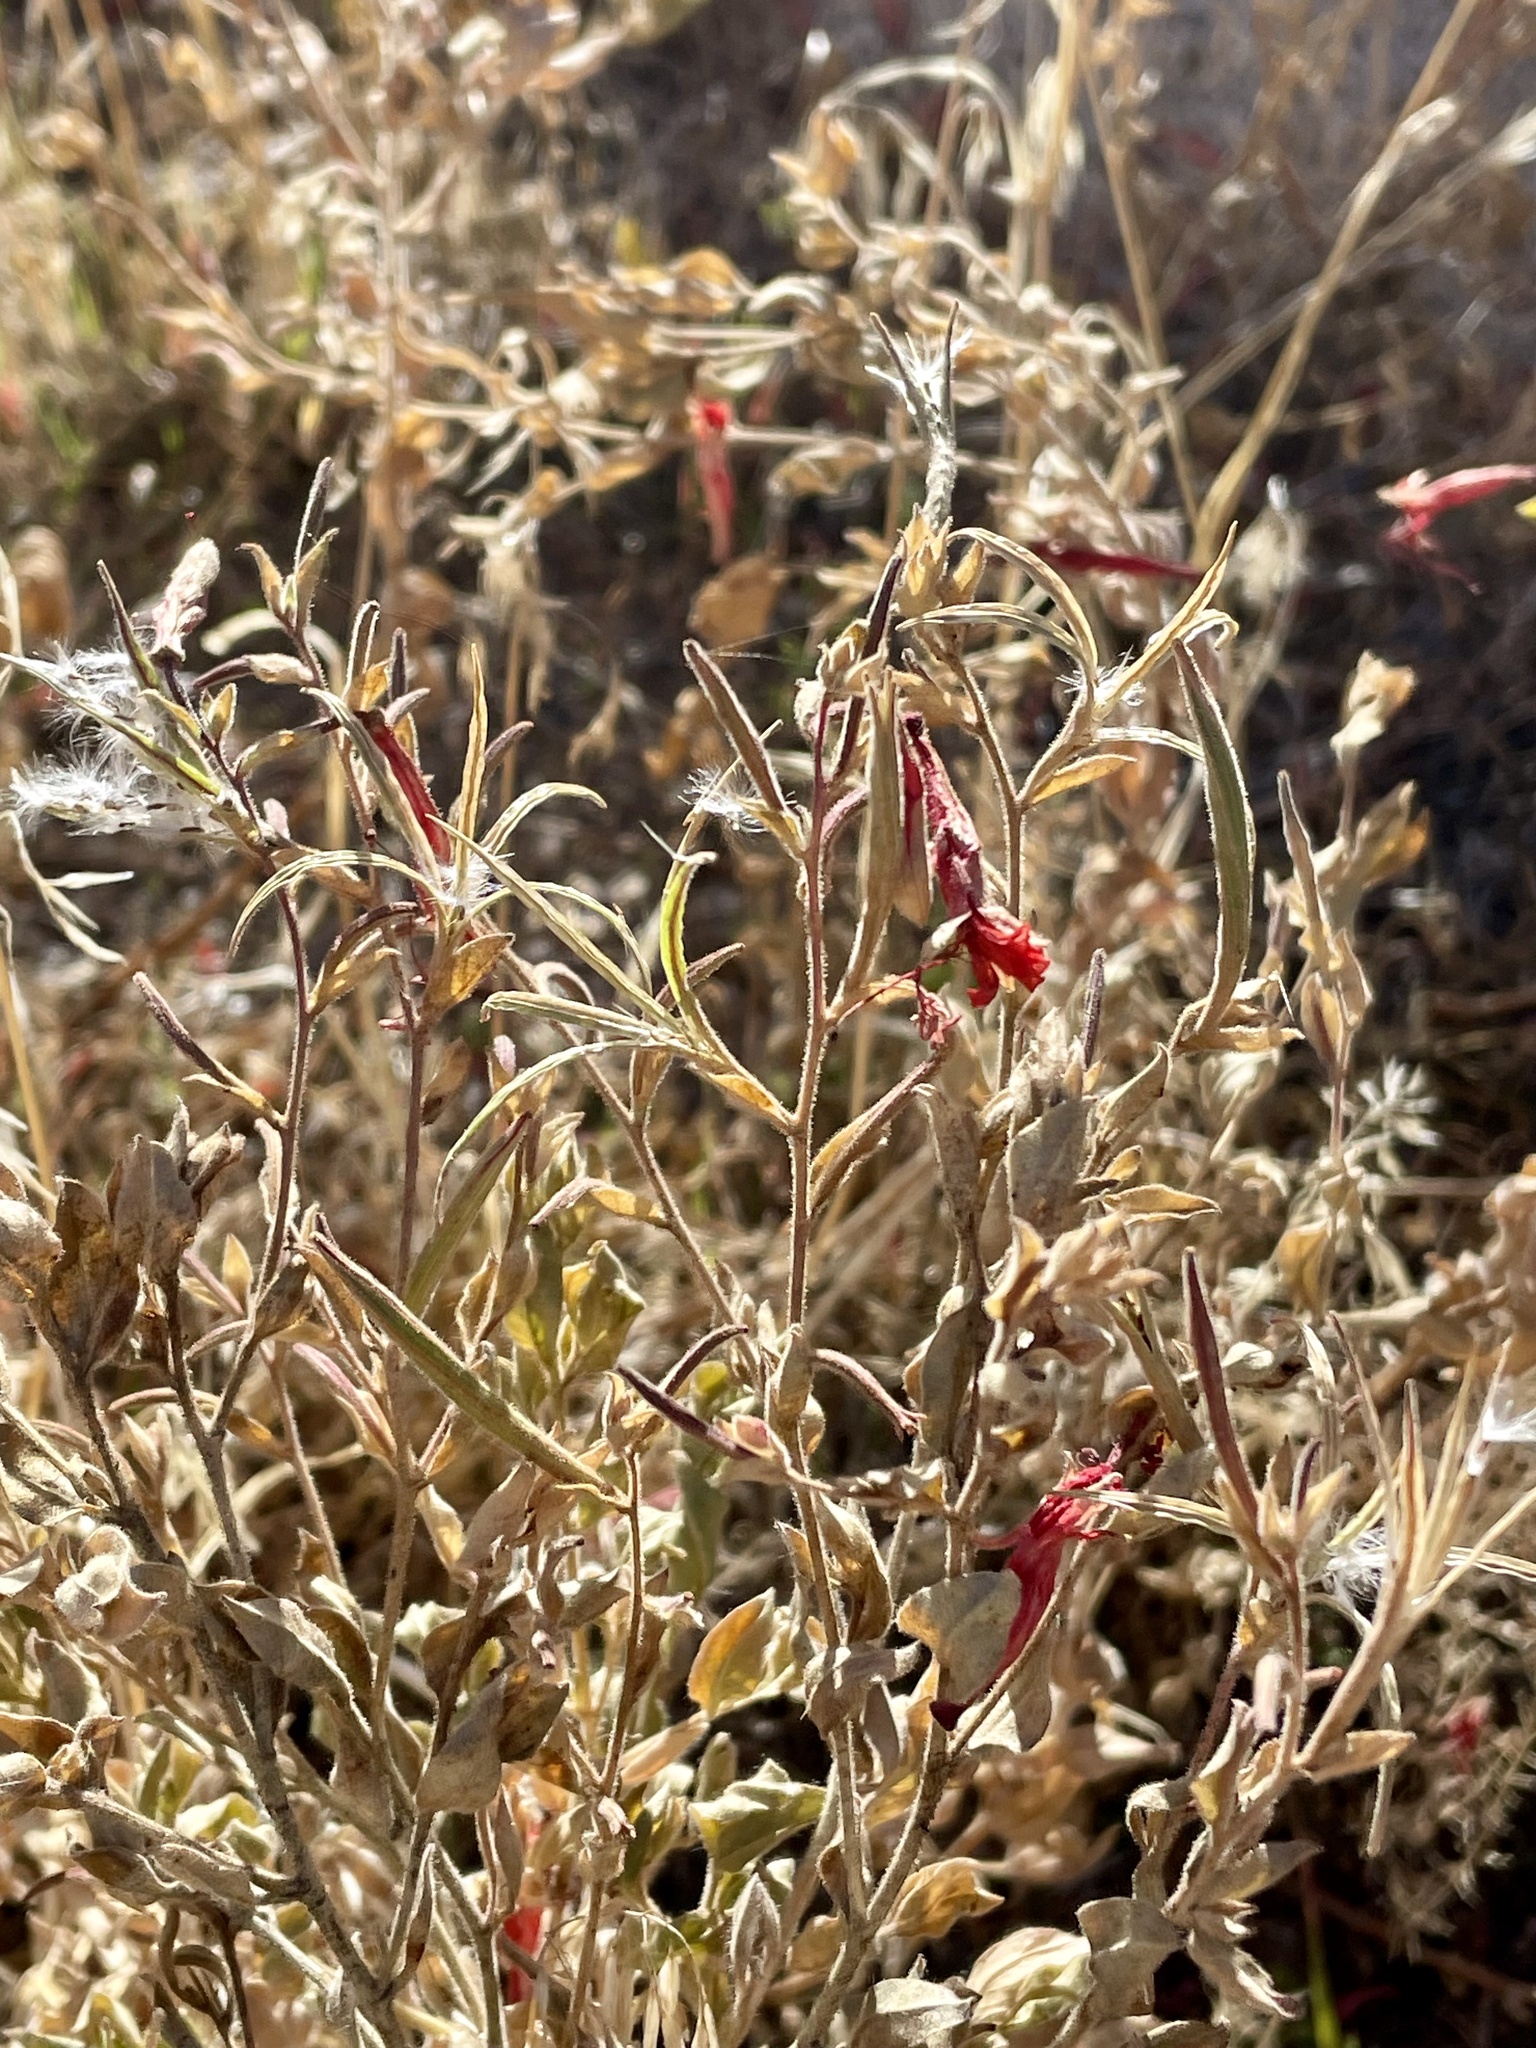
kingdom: Plantae
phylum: Tracheophyta
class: Magnoliopsida
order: Myrtales
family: Onagraceae
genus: Epilobium
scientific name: Epilobium canum
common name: California-fuchsia
